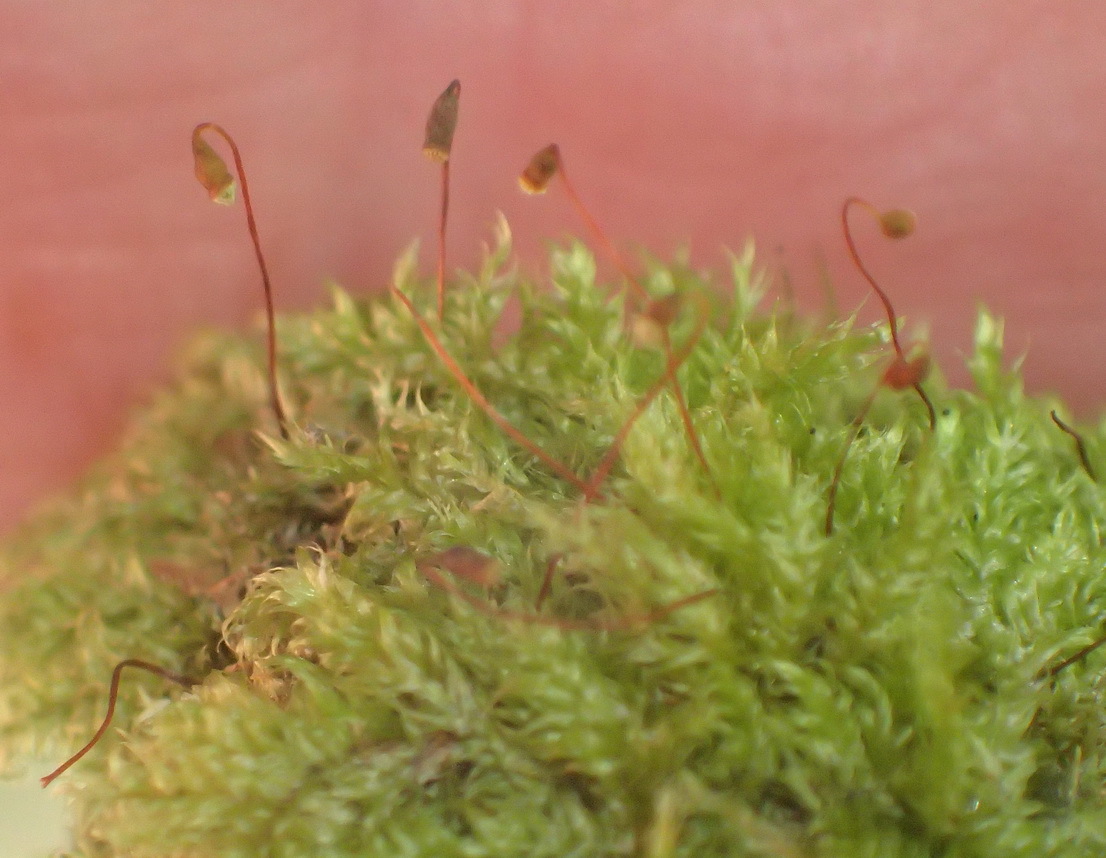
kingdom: Plantae
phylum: Bryophyta
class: Bryopsida
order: Hypnales
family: Sematophyllaceae
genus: Trichosteleum
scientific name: Trichosteleum perchlorosum
